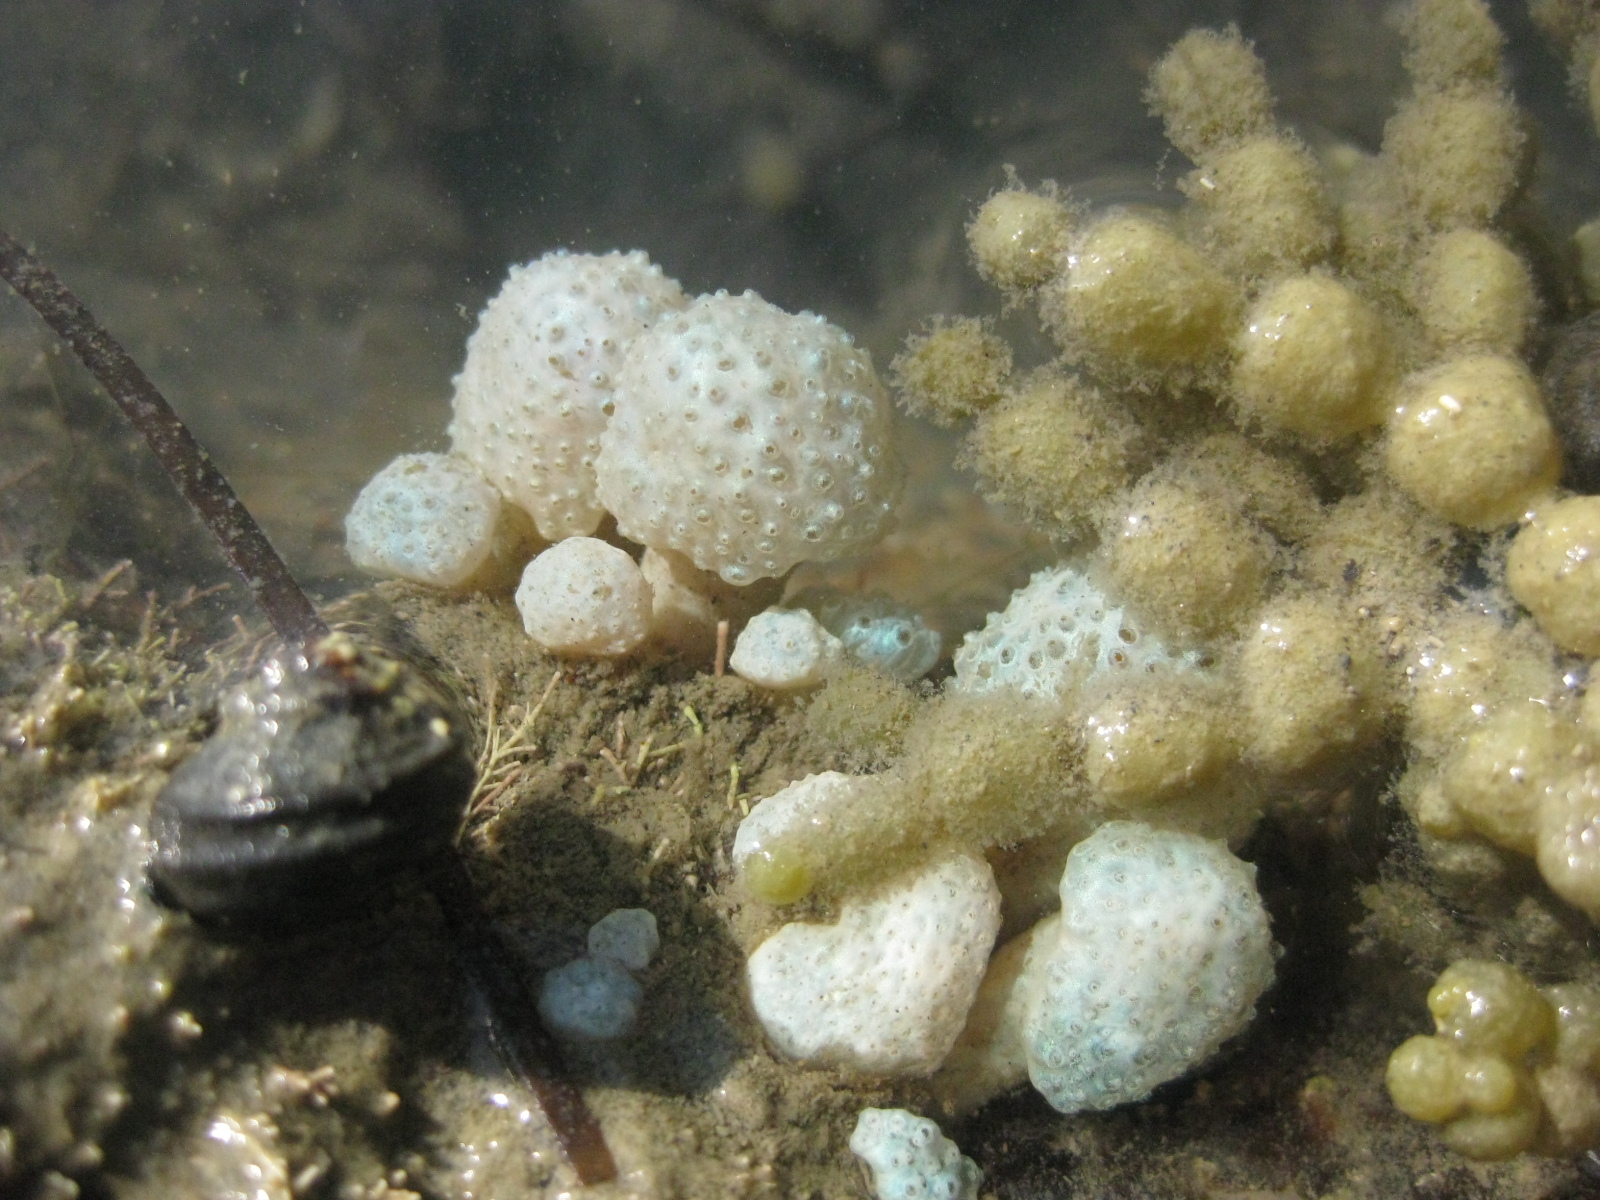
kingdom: Animalia
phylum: Chordata
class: Ascidiacea
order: Aplousobranchia
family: Polycitoridae
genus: Eudistoma
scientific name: Eudistoma elongatum
